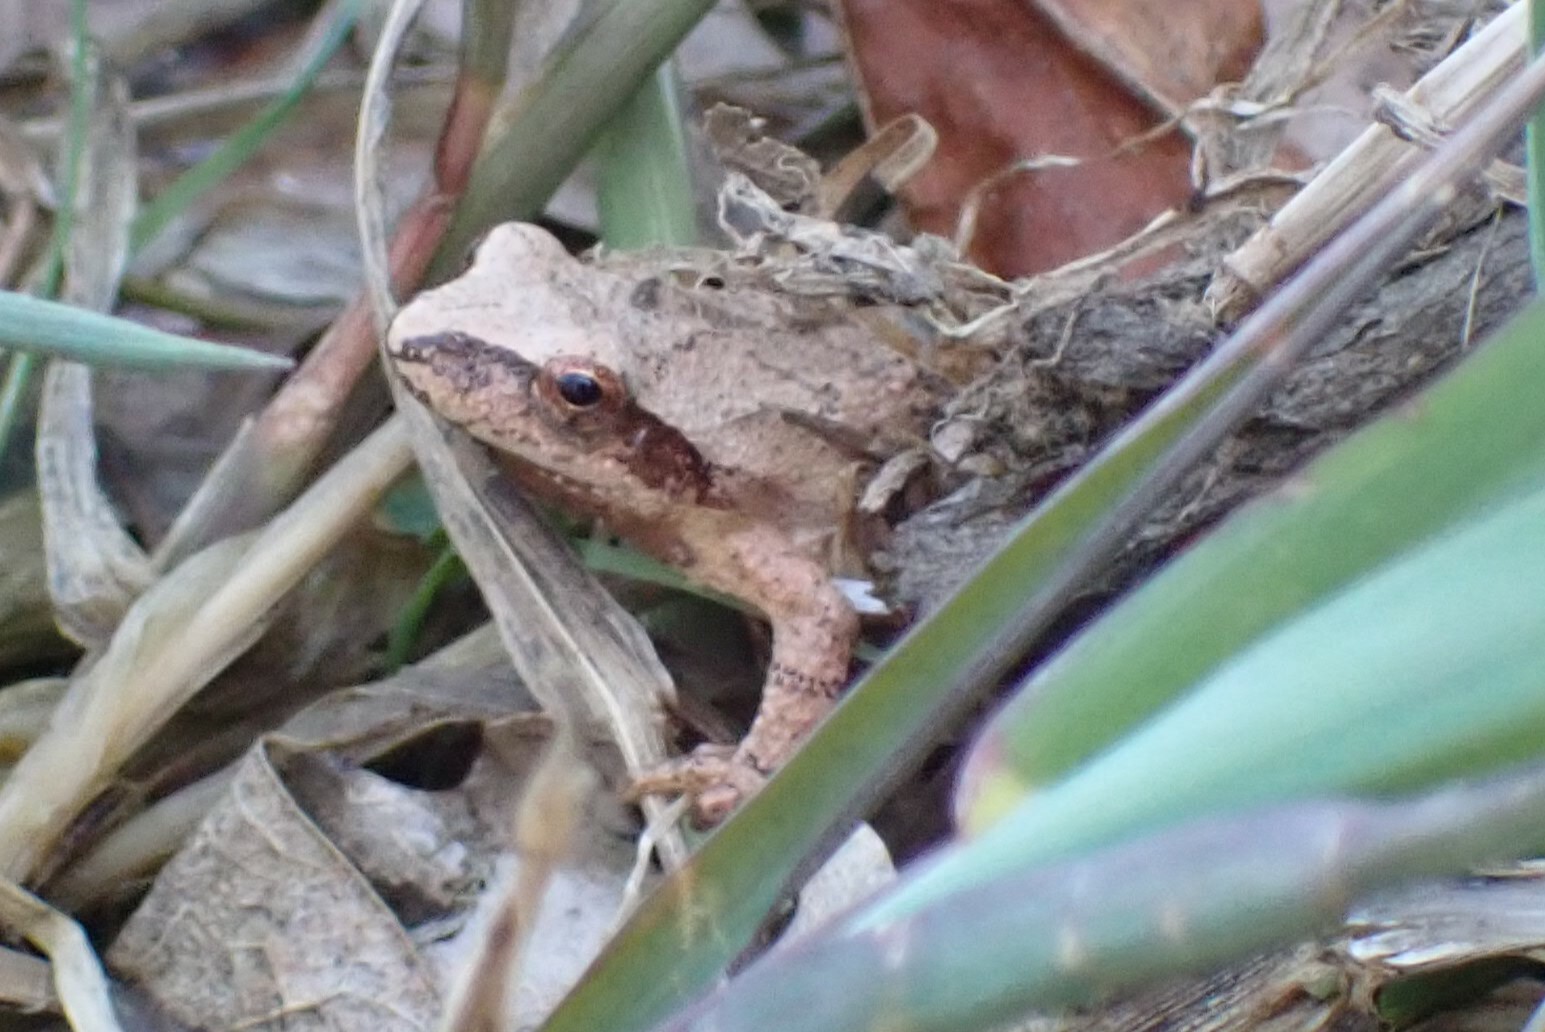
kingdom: Animalia
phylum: Chordata
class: Amphibia
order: Anura
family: Hylidae
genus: Pseudacris
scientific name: Pseudacris crucifer
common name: Spring peeper
